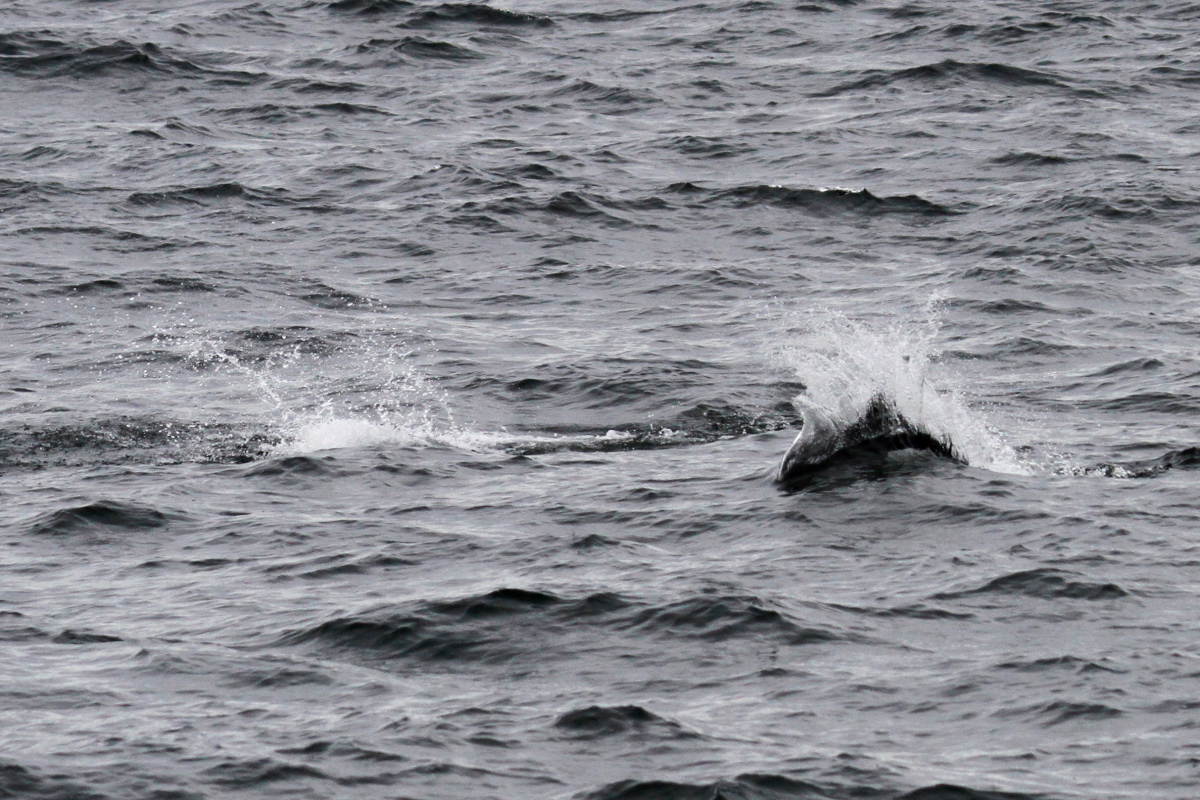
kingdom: Animalia
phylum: Chordata
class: Mammalia
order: Cetacea
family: Phocoenidae
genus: Phocoenoides
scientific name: Phocoenoides dalli
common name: Dall's porpoise
